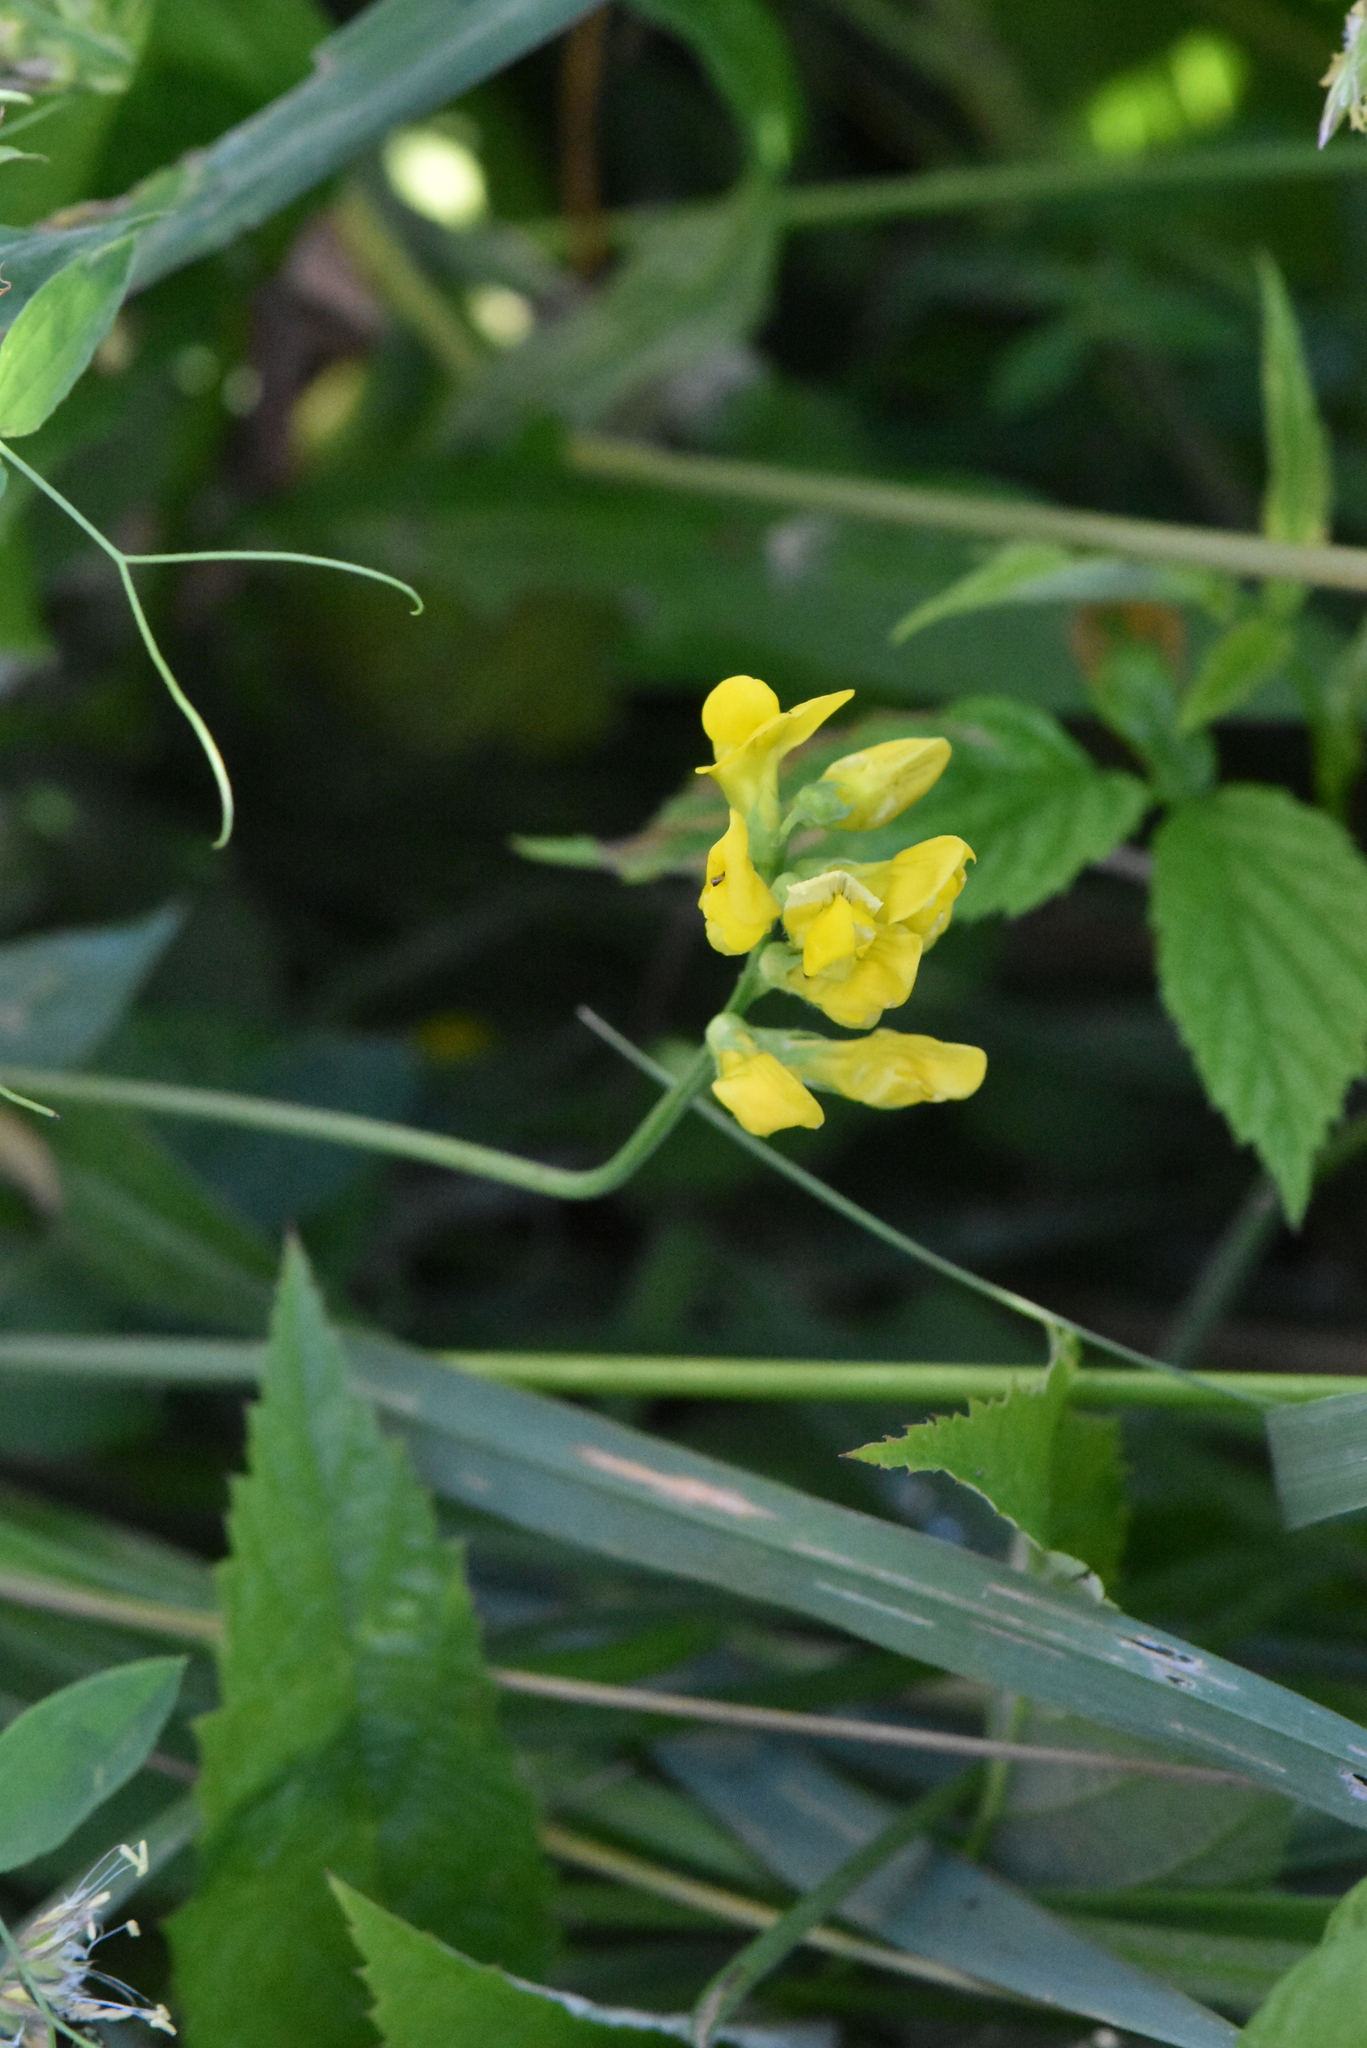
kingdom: Plantae
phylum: Tracheophyta
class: Magnoliopsida
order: Fabales
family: Fabaceae
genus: Lathyrus
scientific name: Lathyrus pratensis
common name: Meadow vetchling
